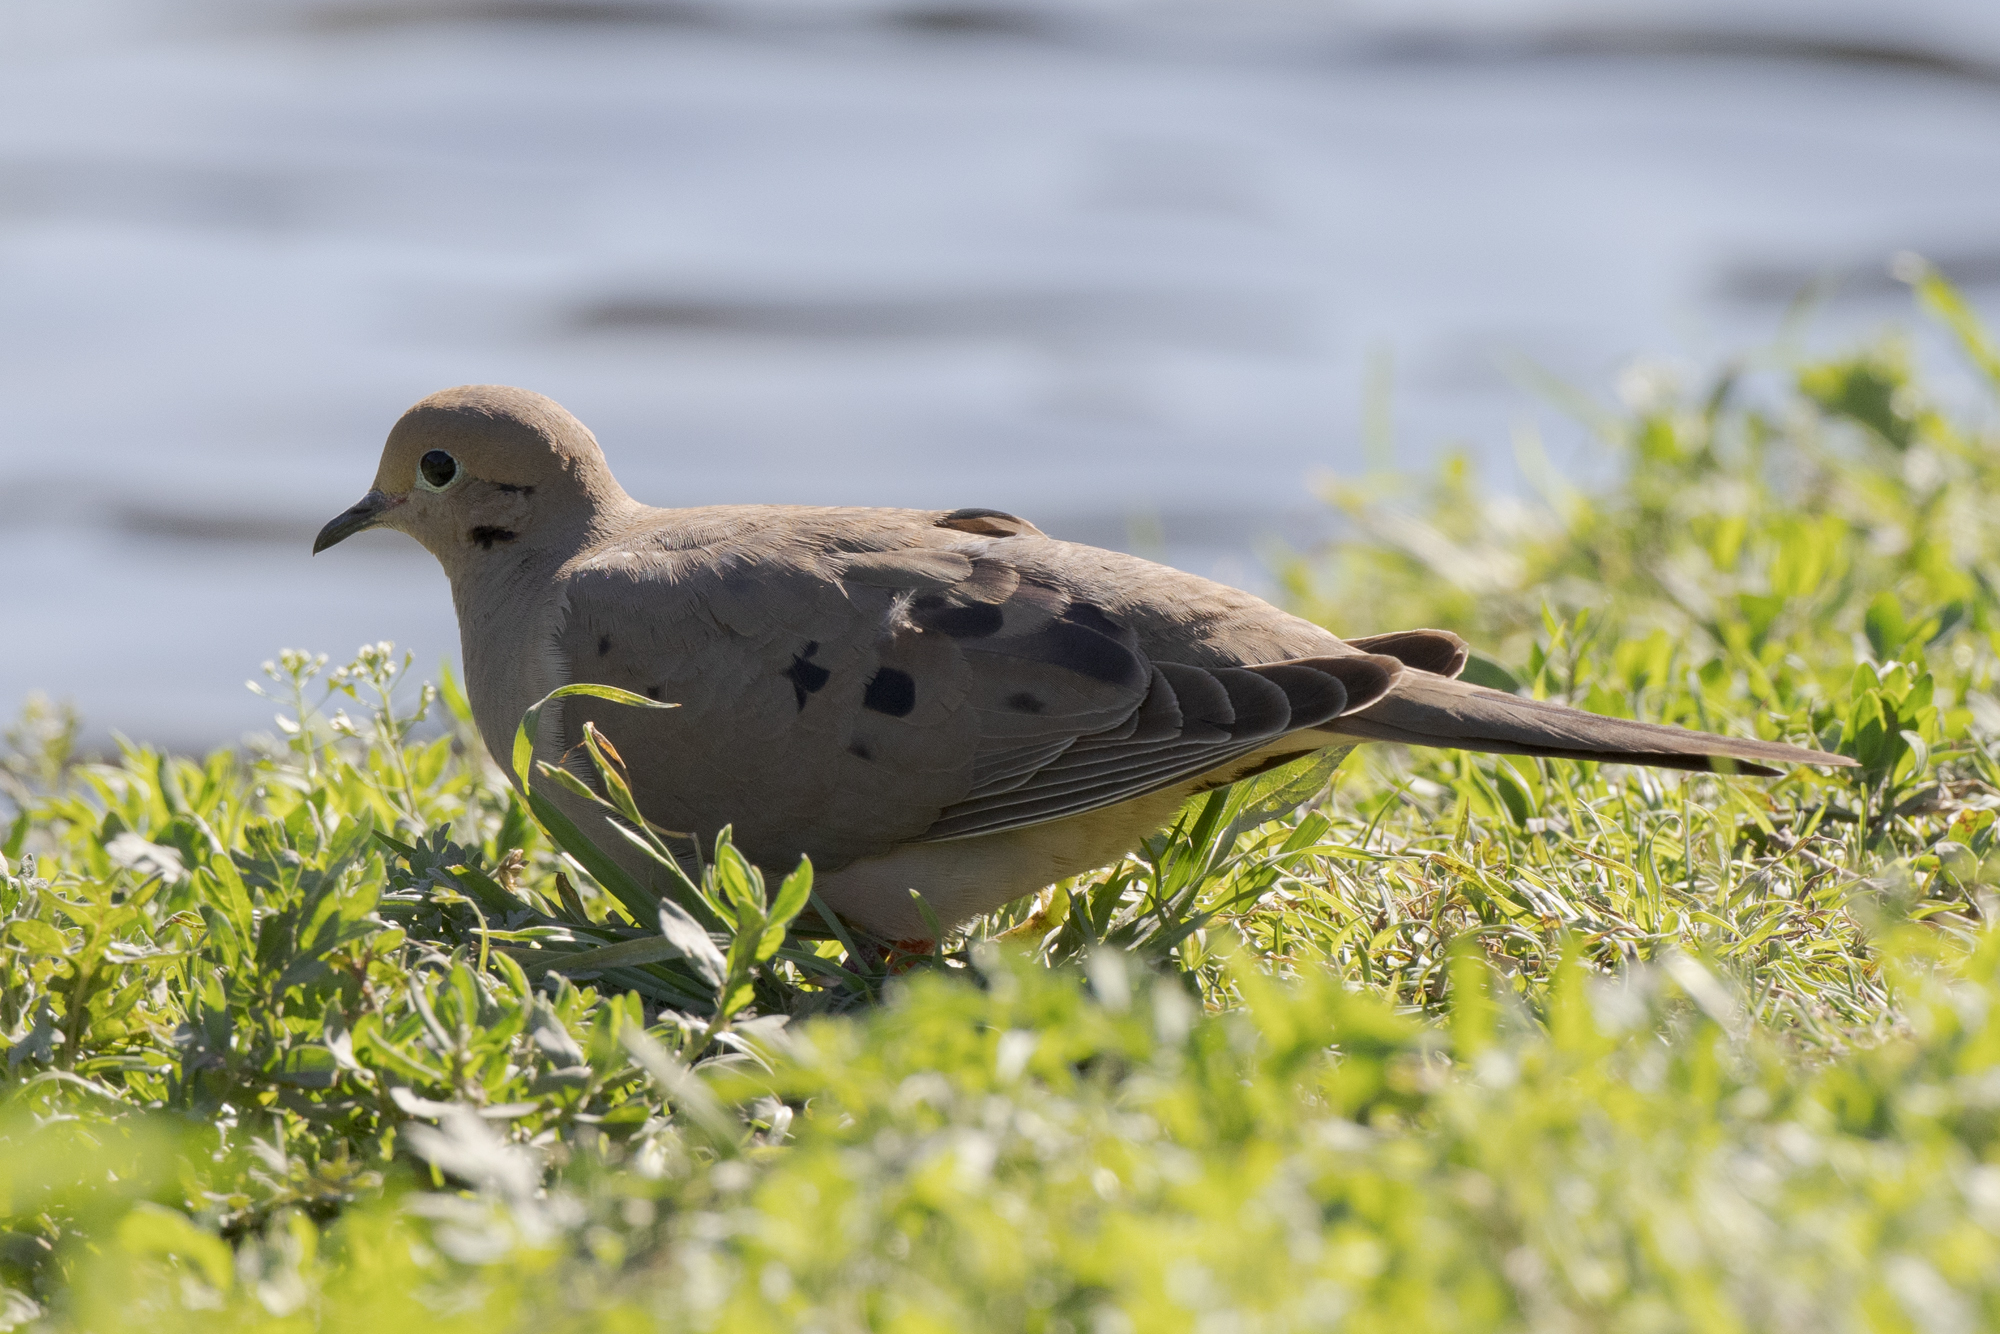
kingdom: Animalia
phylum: Chordata
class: Aves
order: Columbiformes
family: Columbidae
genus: Zenaida
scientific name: Zenaida macroura
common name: Mourning dove
